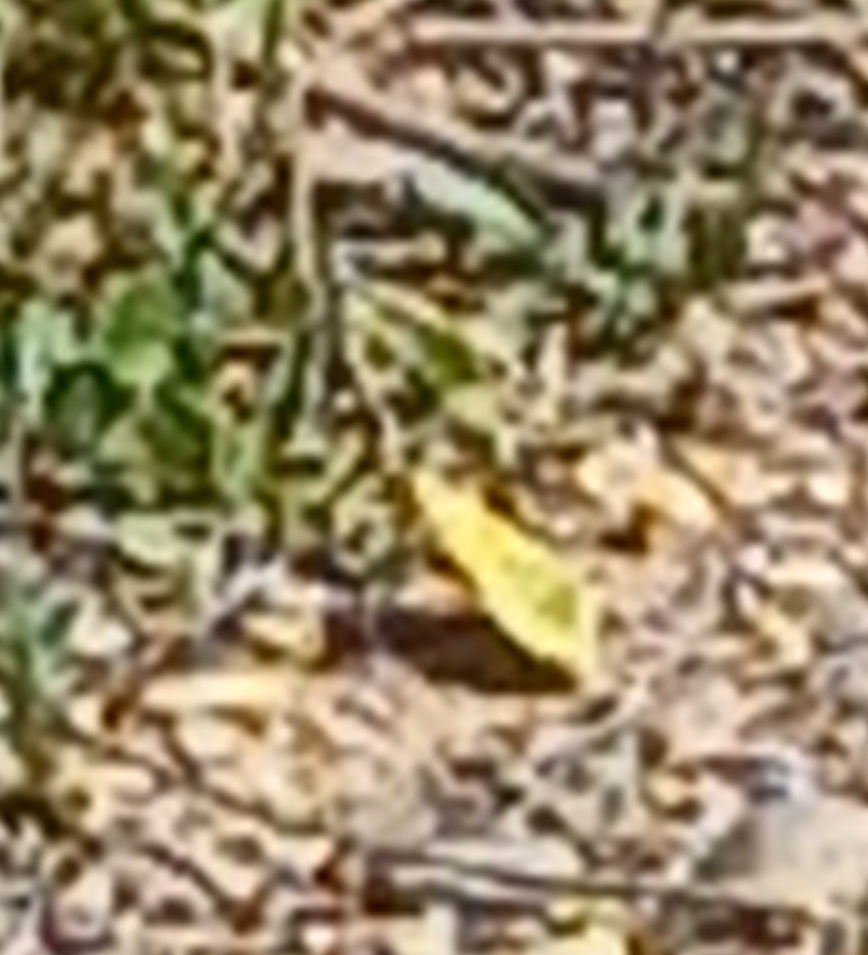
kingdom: Animalia
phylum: Arthropoda
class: Insecta
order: Lepidoptera
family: Pieridae
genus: Colias
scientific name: Colias croceus
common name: Clouded yellow
